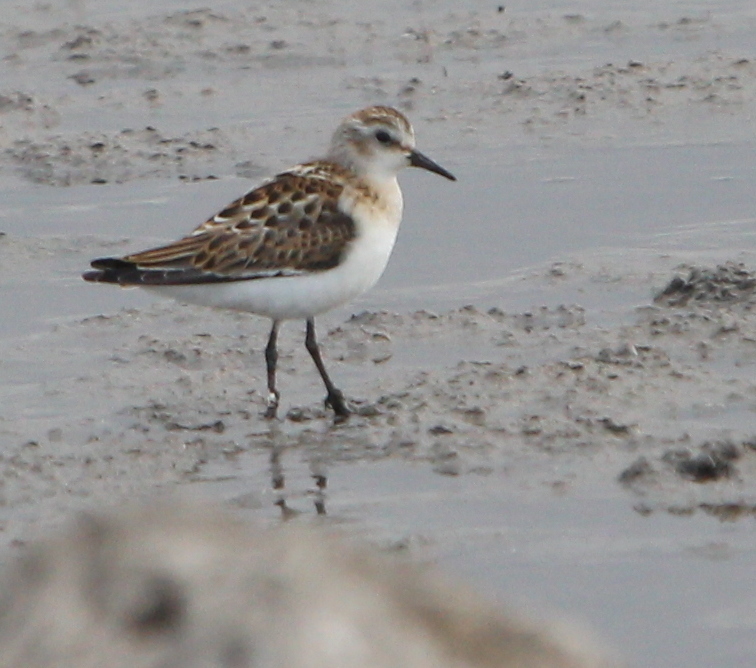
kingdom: Animalia
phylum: Chordata
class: Aves
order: Charadriiformes
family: Scolopacidae
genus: Calidris
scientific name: Calidris minuta
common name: Little stint
